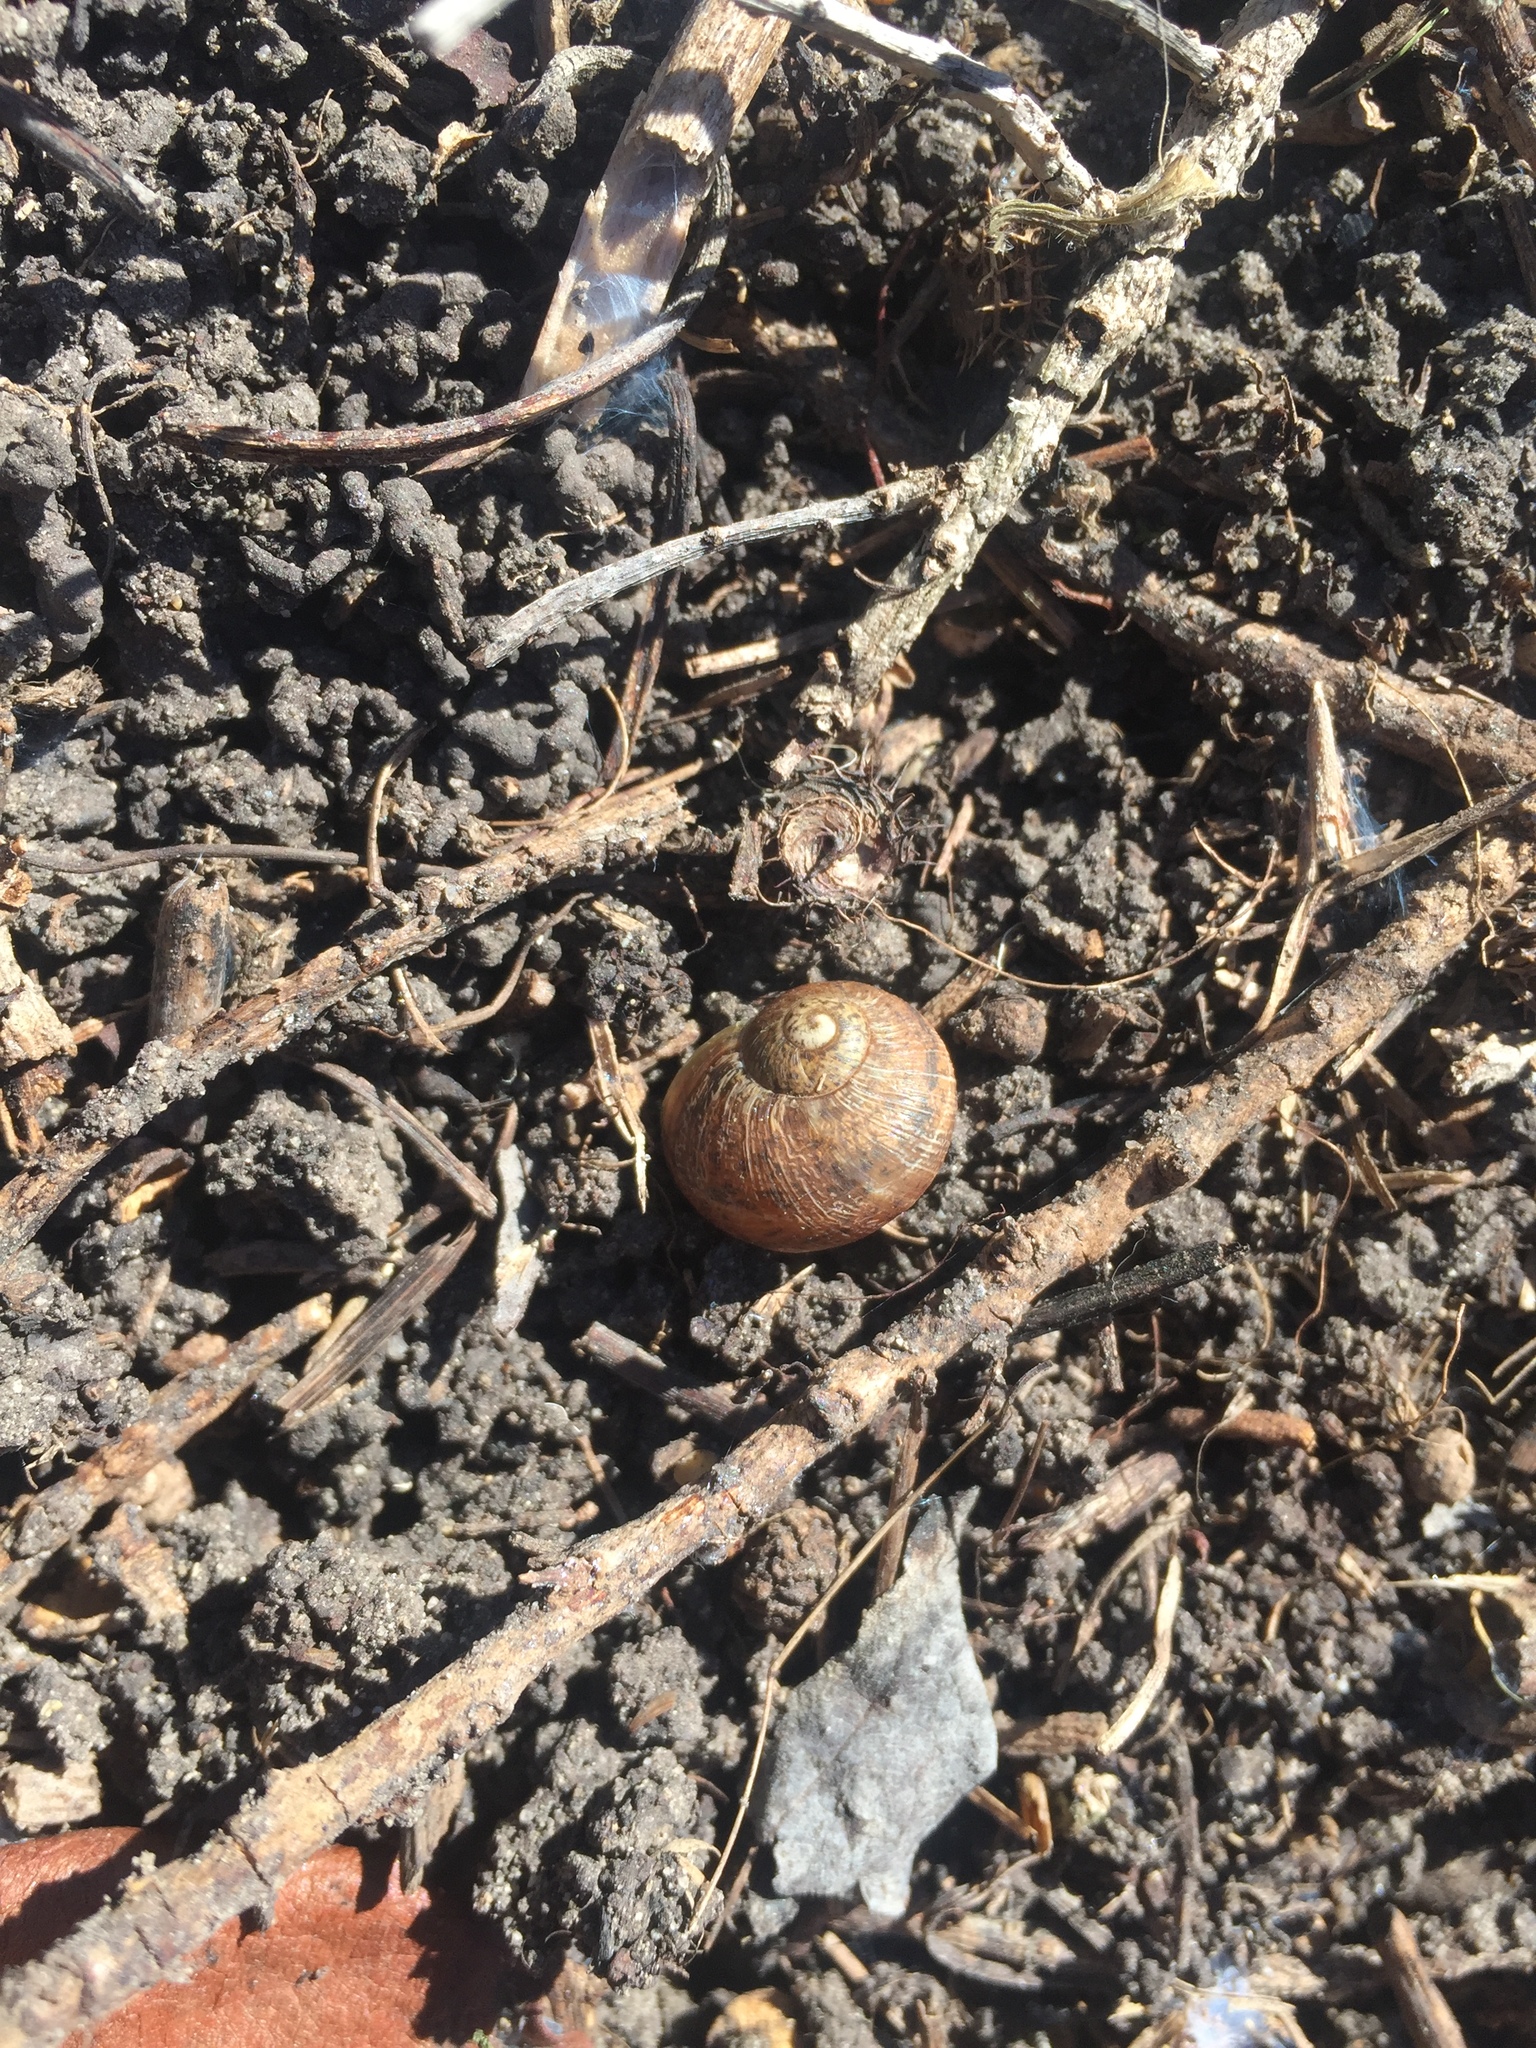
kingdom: Animalia
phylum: Mollusca
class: Gastropoda
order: Stylommatophora
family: Helicidae
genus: Cornu
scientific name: Cornu aspersum
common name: Brown garden snail
